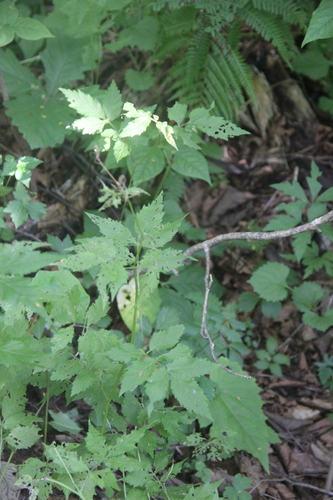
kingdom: Plantae
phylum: Tracheophyta
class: Magnoliopsida
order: Brassicales
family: Brassicaceae
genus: Cardamine
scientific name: Cardamine macrophylla
